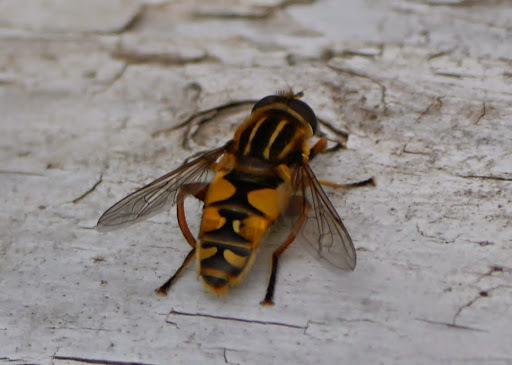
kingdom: Animalia
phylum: Arthropoda
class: Insecta
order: Diptera
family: Syrphidae
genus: Helophilus
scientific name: Helophilus intentus
